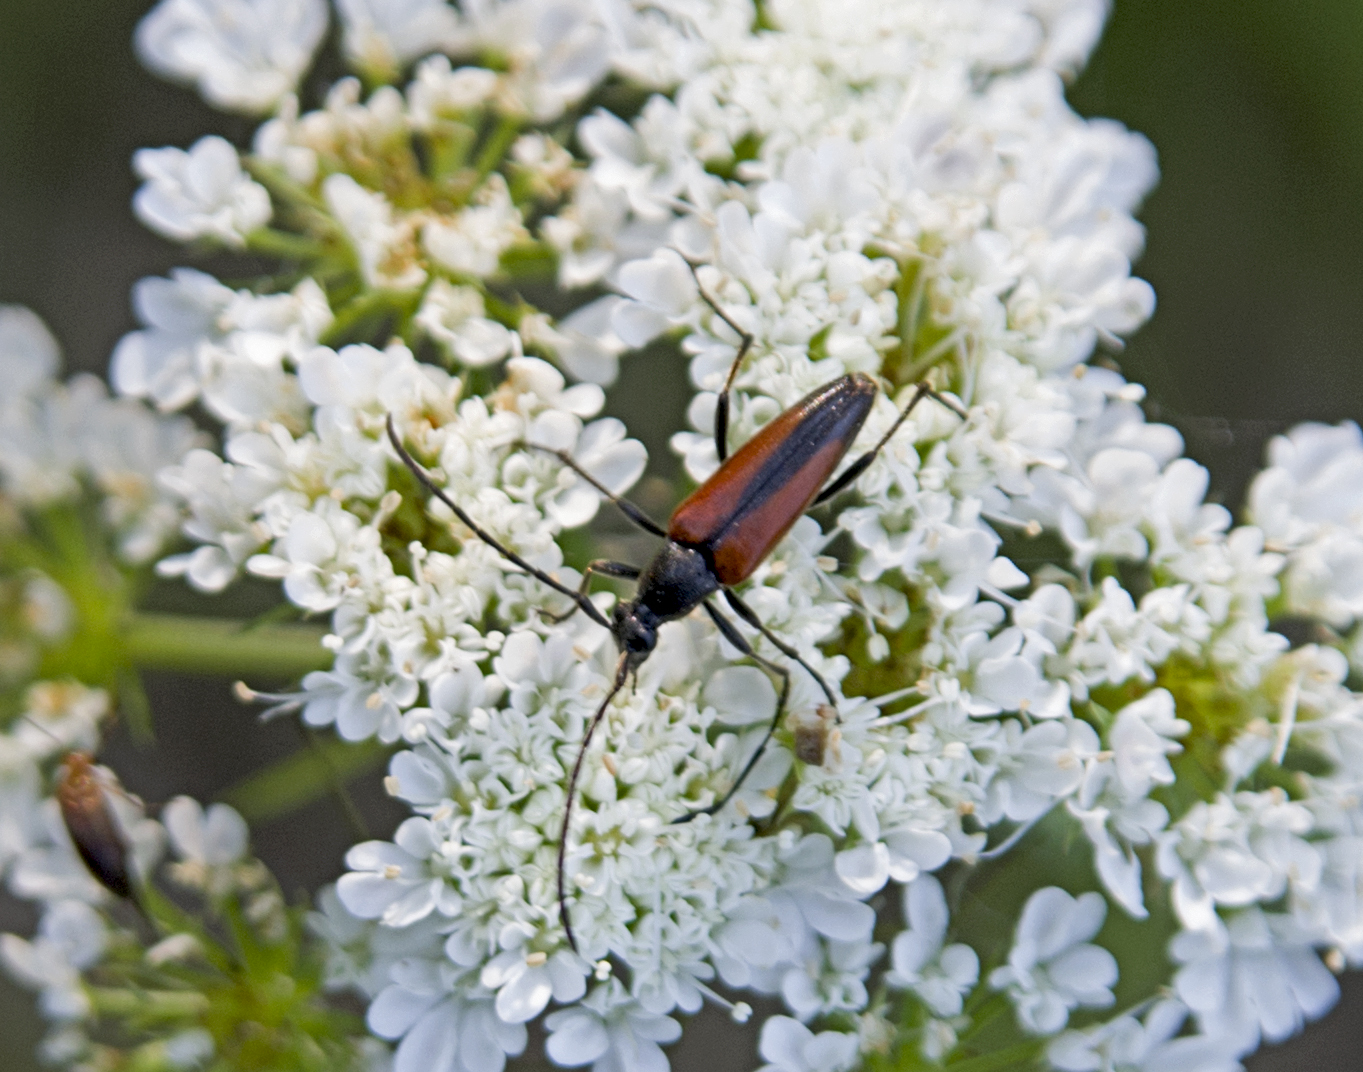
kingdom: Animalia
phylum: Arthropoda
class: Insecta
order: Coleoptera
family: Cerambycidae
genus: Stenurella
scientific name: Stenurella melanura
